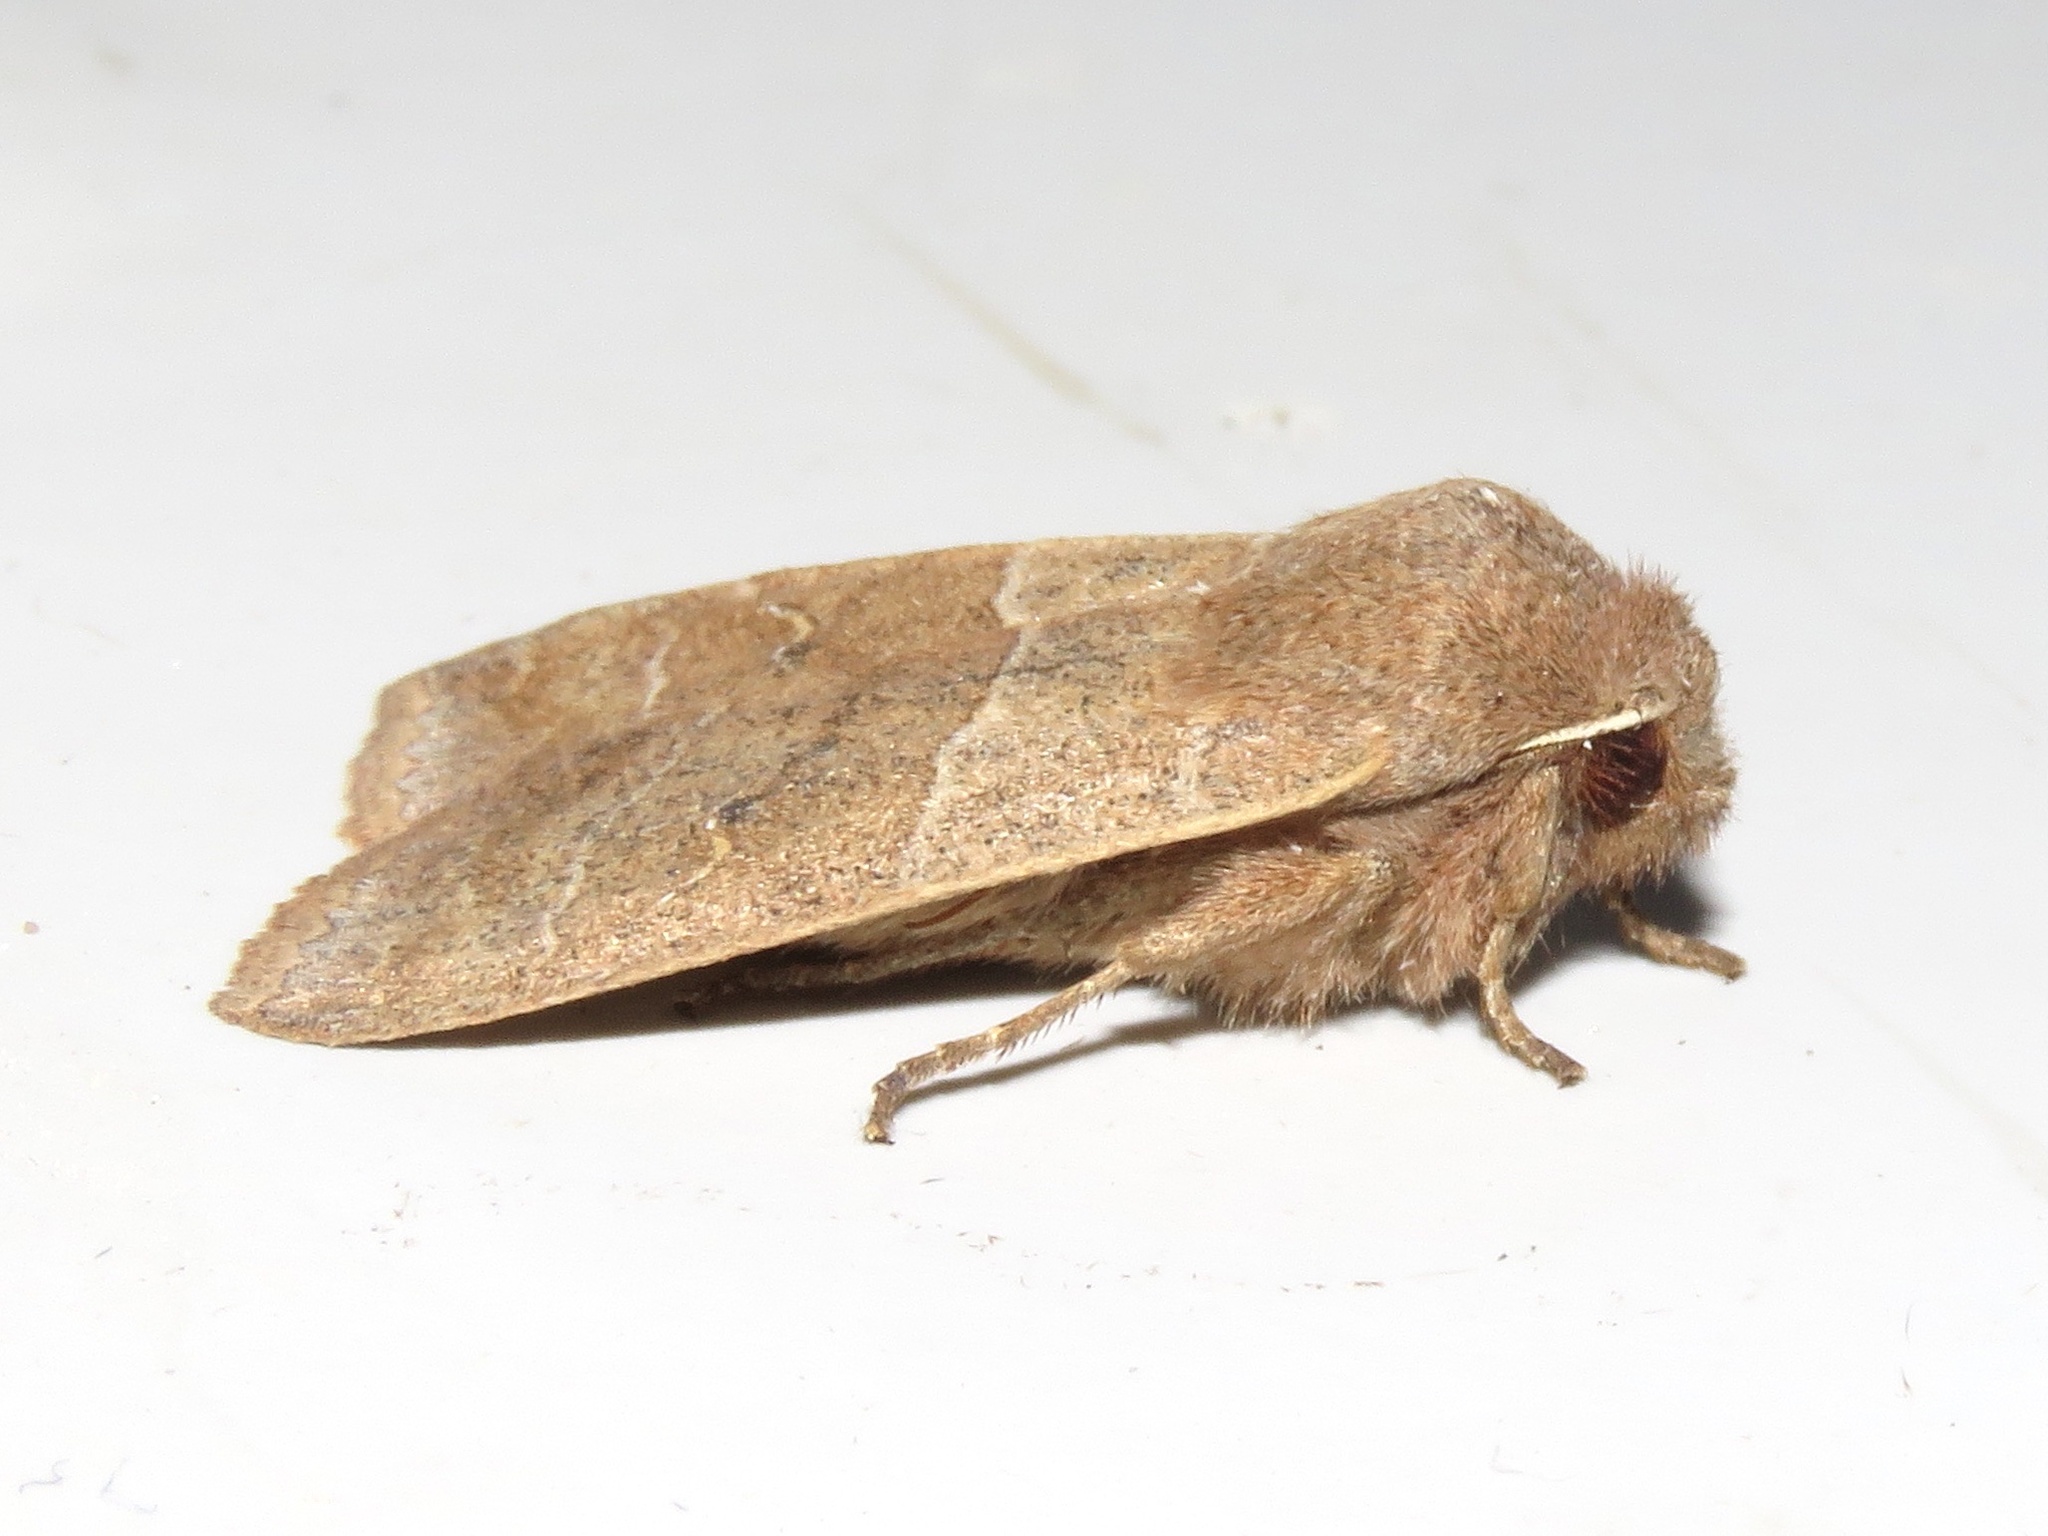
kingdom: Animalia
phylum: Arthropoda
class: Insecta
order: Lepidoptera
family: Noctuidae
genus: Eupsilia
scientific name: Eupsilia morrisoni
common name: Morrison's sallow
